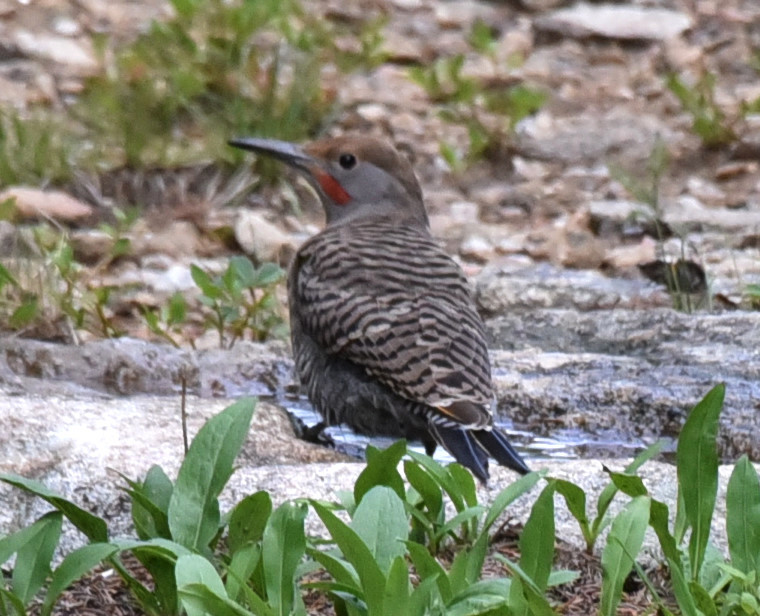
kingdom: Animalia
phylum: Chordata
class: Aves
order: Piciformes
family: Picidae
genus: Colaptes
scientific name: Colaptes auratus
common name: Northern flicker
